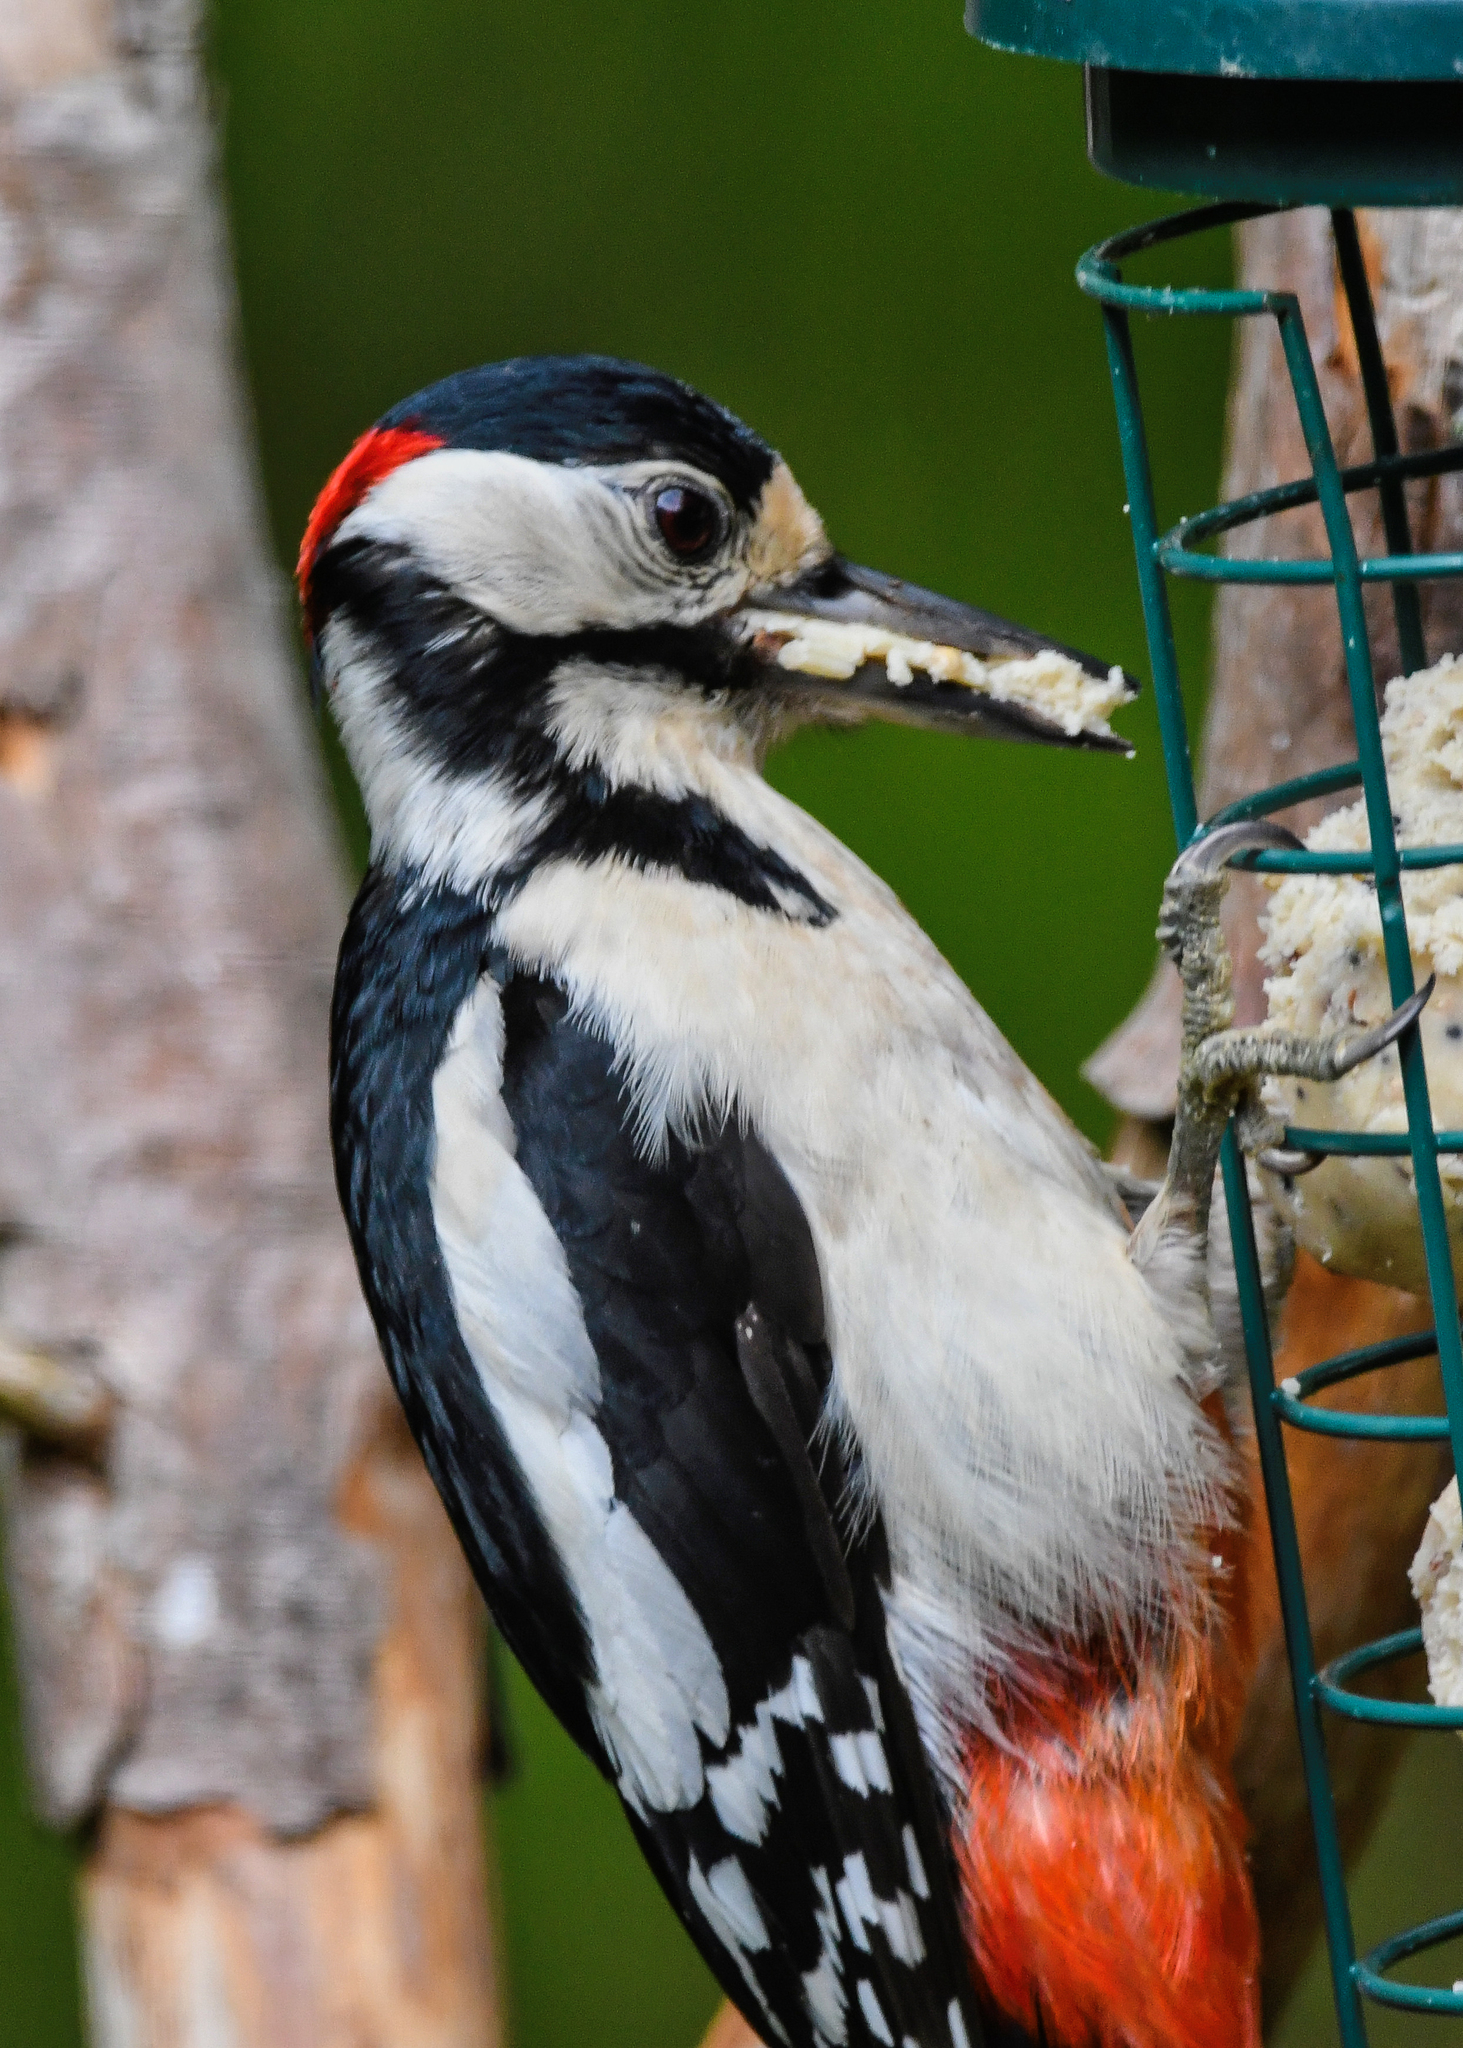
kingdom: Animalia
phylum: Chordata
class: Aves
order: Piciformes
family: Picidae
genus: Dendrocopos
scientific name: Dendrocopos major
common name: Great spotted woodpecker
